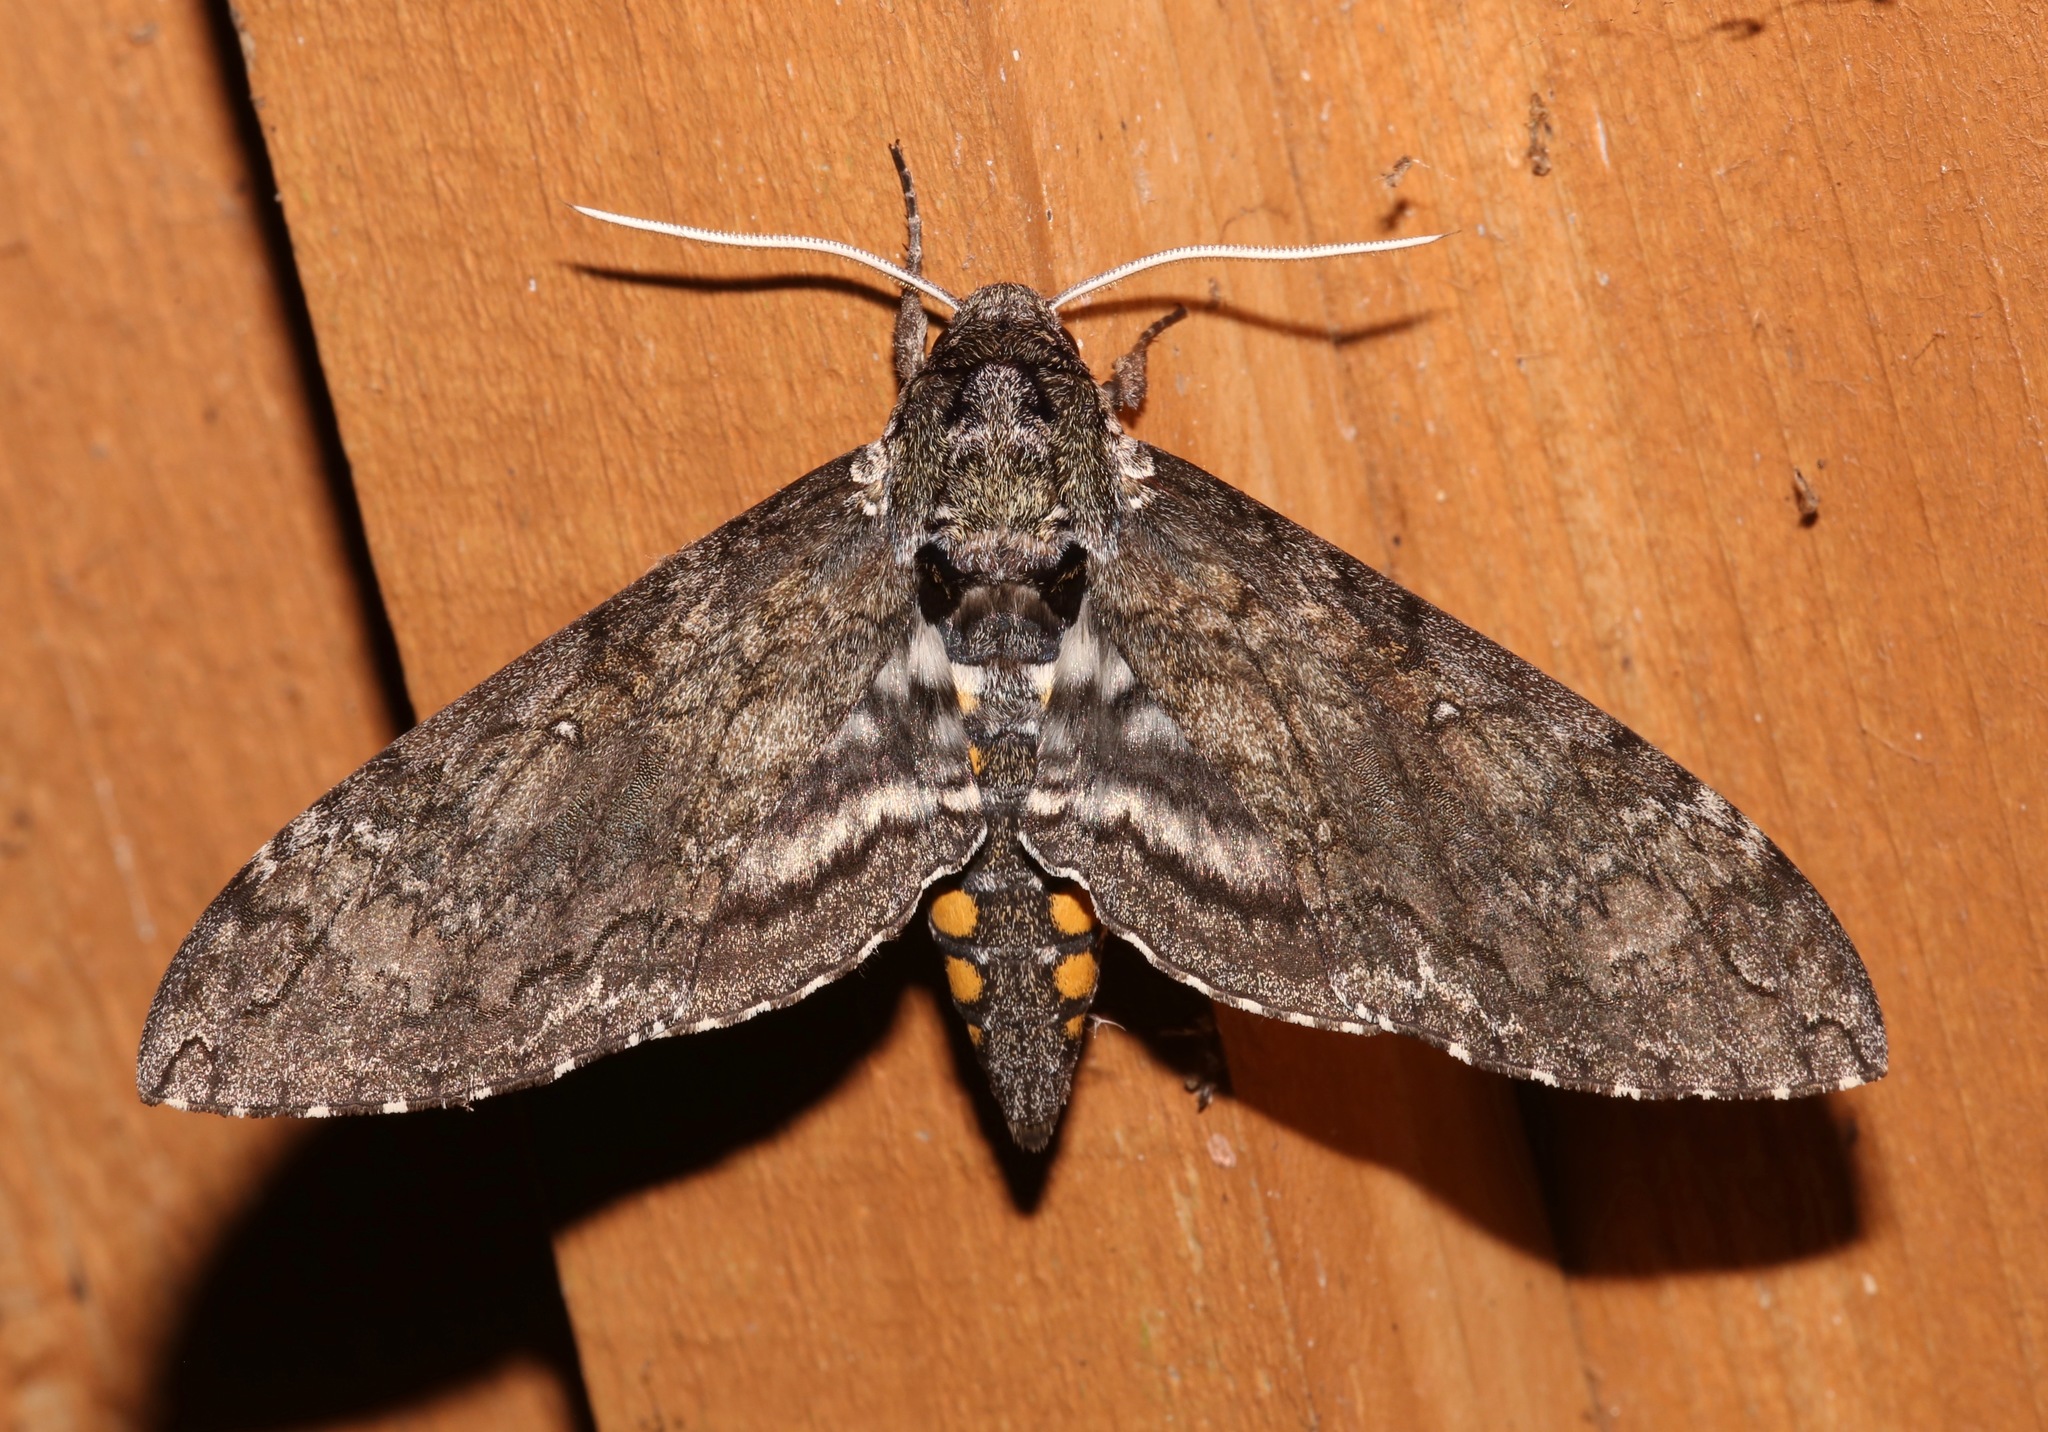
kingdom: Animalia
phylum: Arthropoda
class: Insecta
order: Lepidoptera
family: Sphingidae
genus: Manduca
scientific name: Manduca sexta
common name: Carolina sphinx
